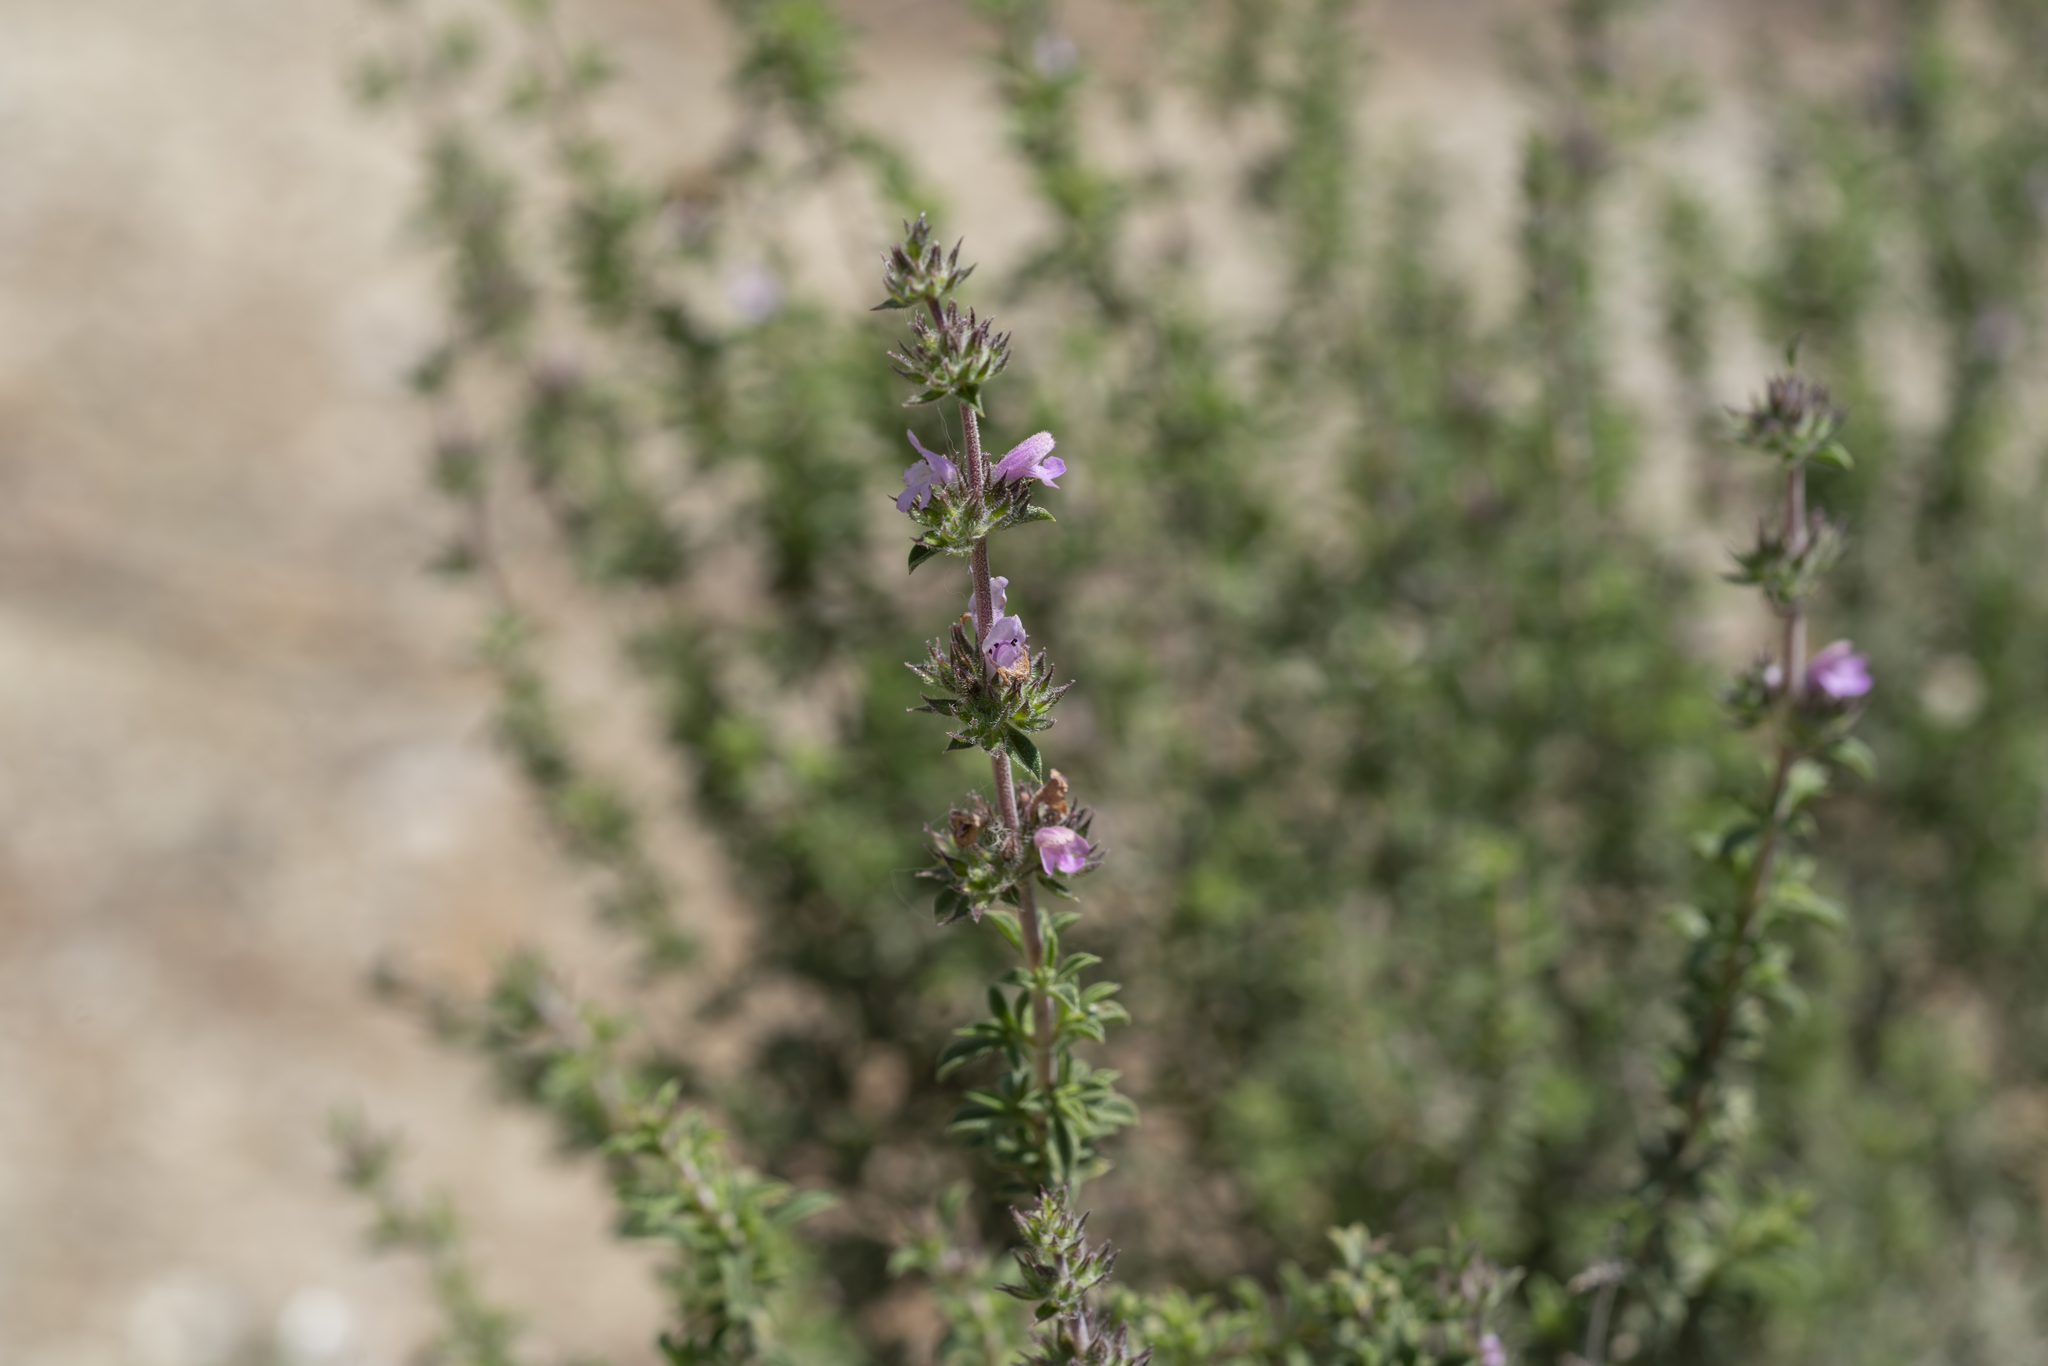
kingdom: Plantae
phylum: Tracheophyta
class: Magnoliopsida
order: Lamiales
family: Lamiaceae
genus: Satureja
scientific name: Satureja thymbra
